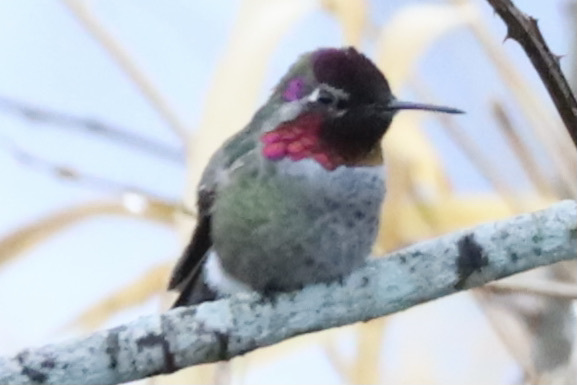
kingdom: Animalia
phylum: Chordata
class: Aves
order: Apodiformes
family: Trochilidae
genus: Calypte
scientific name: Calypte anna
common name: Anna's hummingbird
